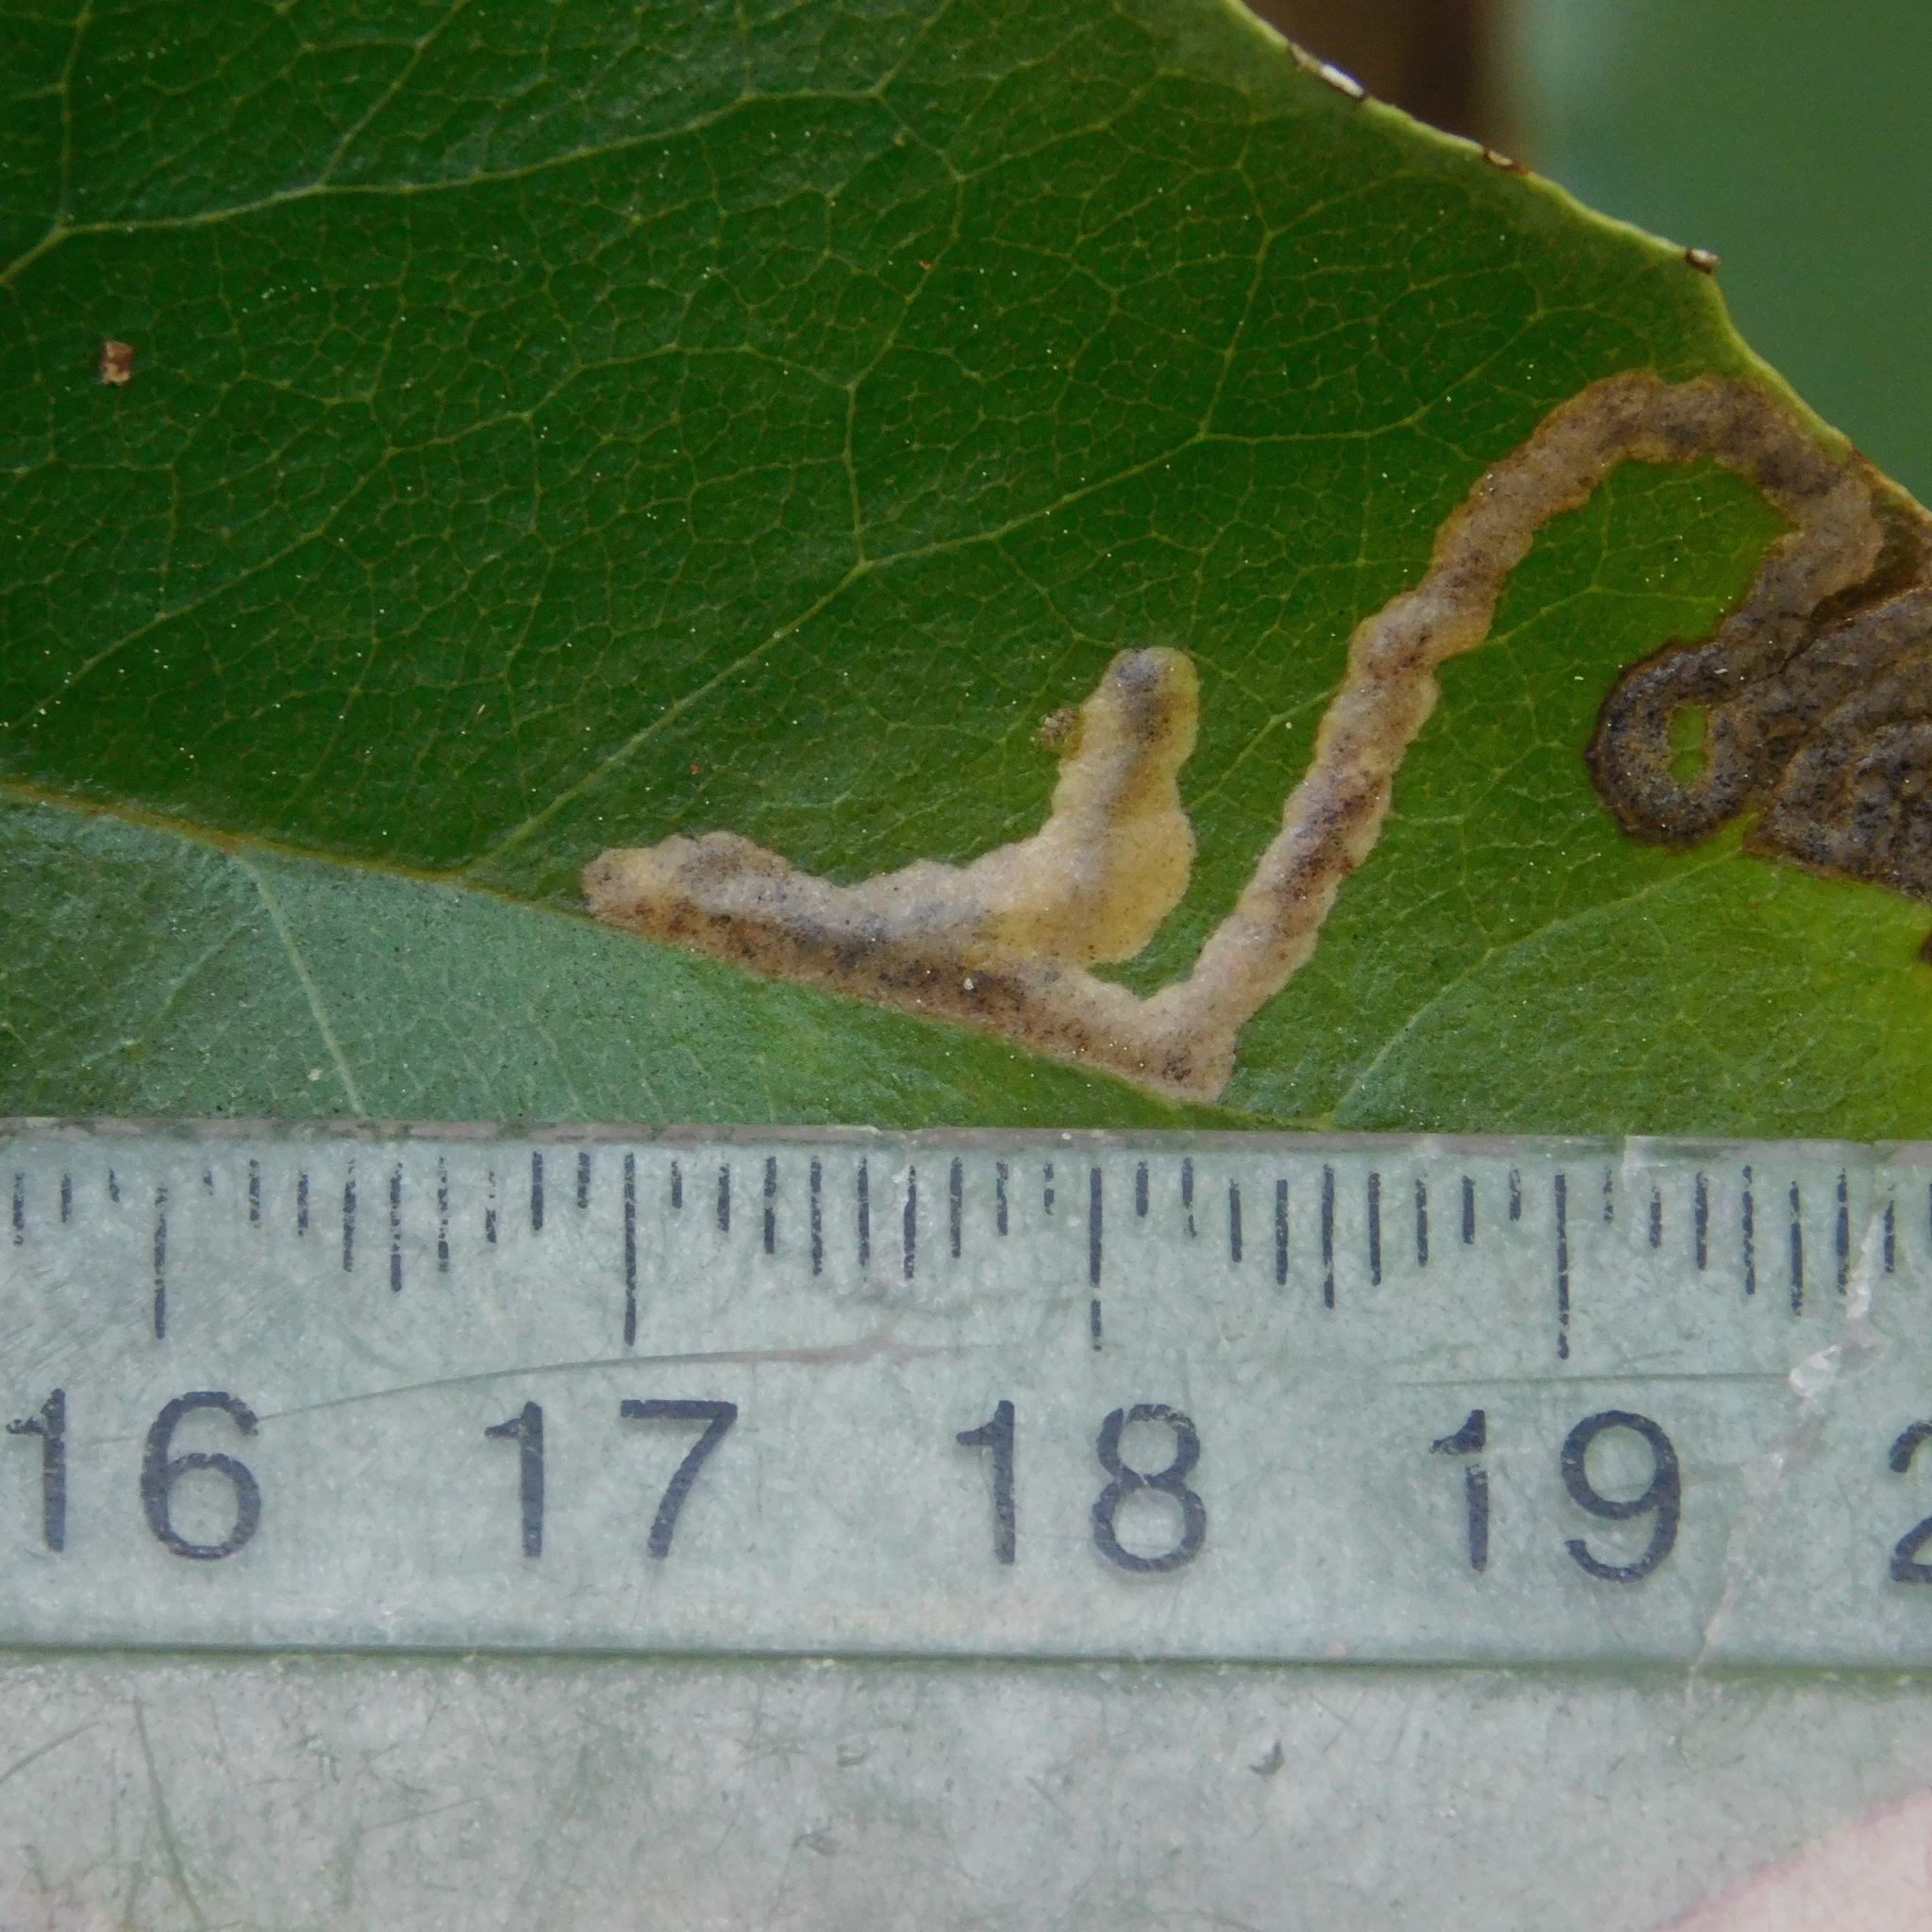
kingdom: Animalia
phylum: Arthropoda
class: Insecta
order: Lepidoptera
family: Gelechiidae
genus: Epiphthora
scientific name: Epiphthora melanombra
